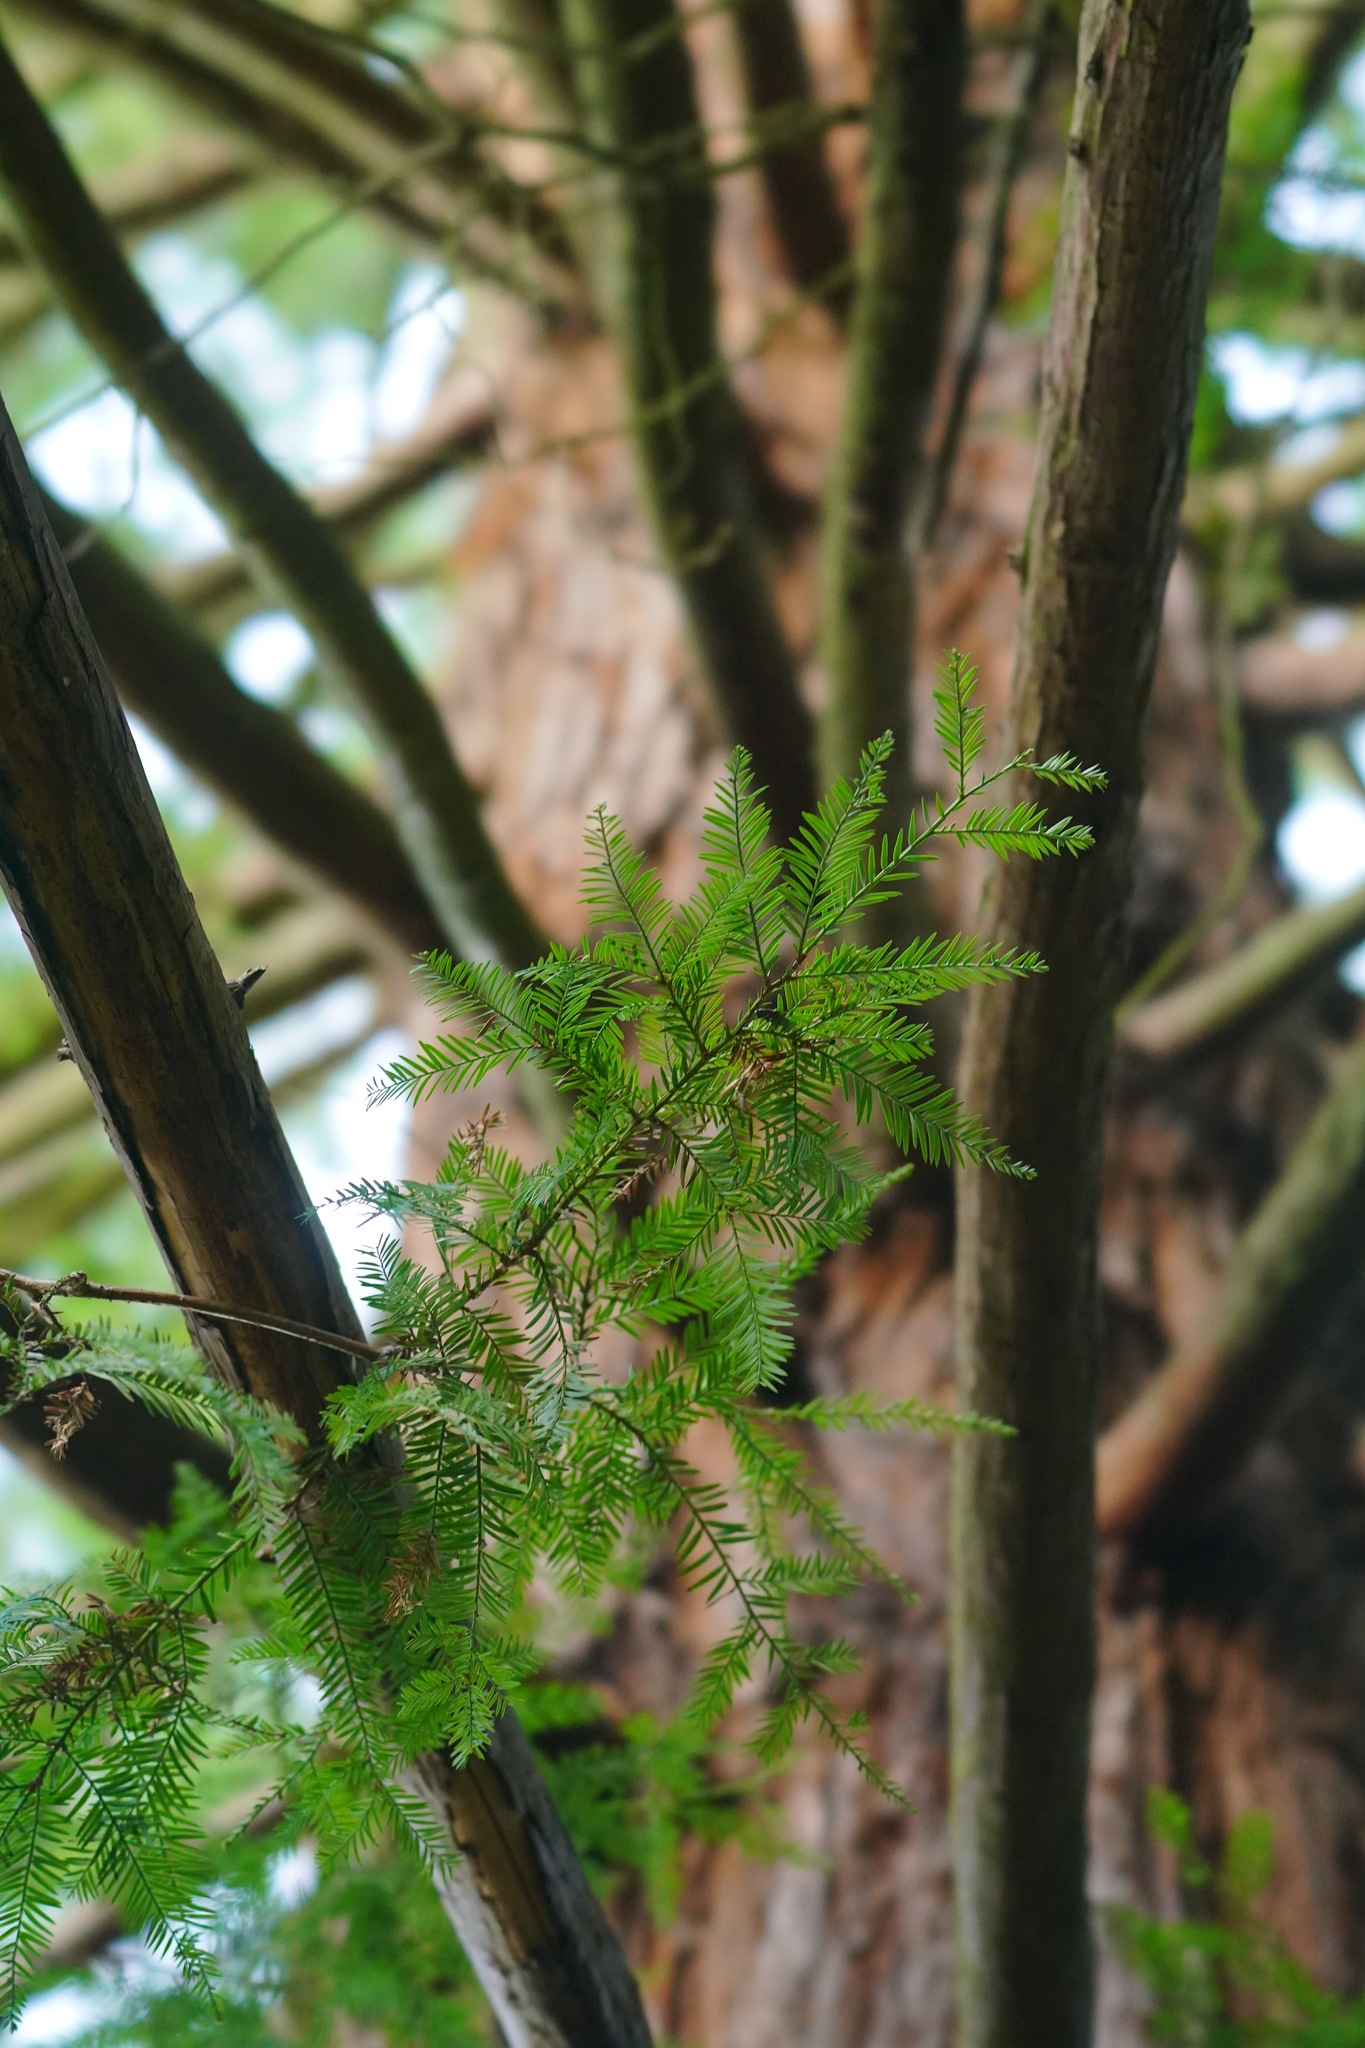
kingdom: Plantae
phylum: Tracheophyta
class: Pinopsida
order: Pinales
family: Cupressaceae
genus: Sequoia
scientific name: Sequoia sempervirens
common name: Coast redwood
